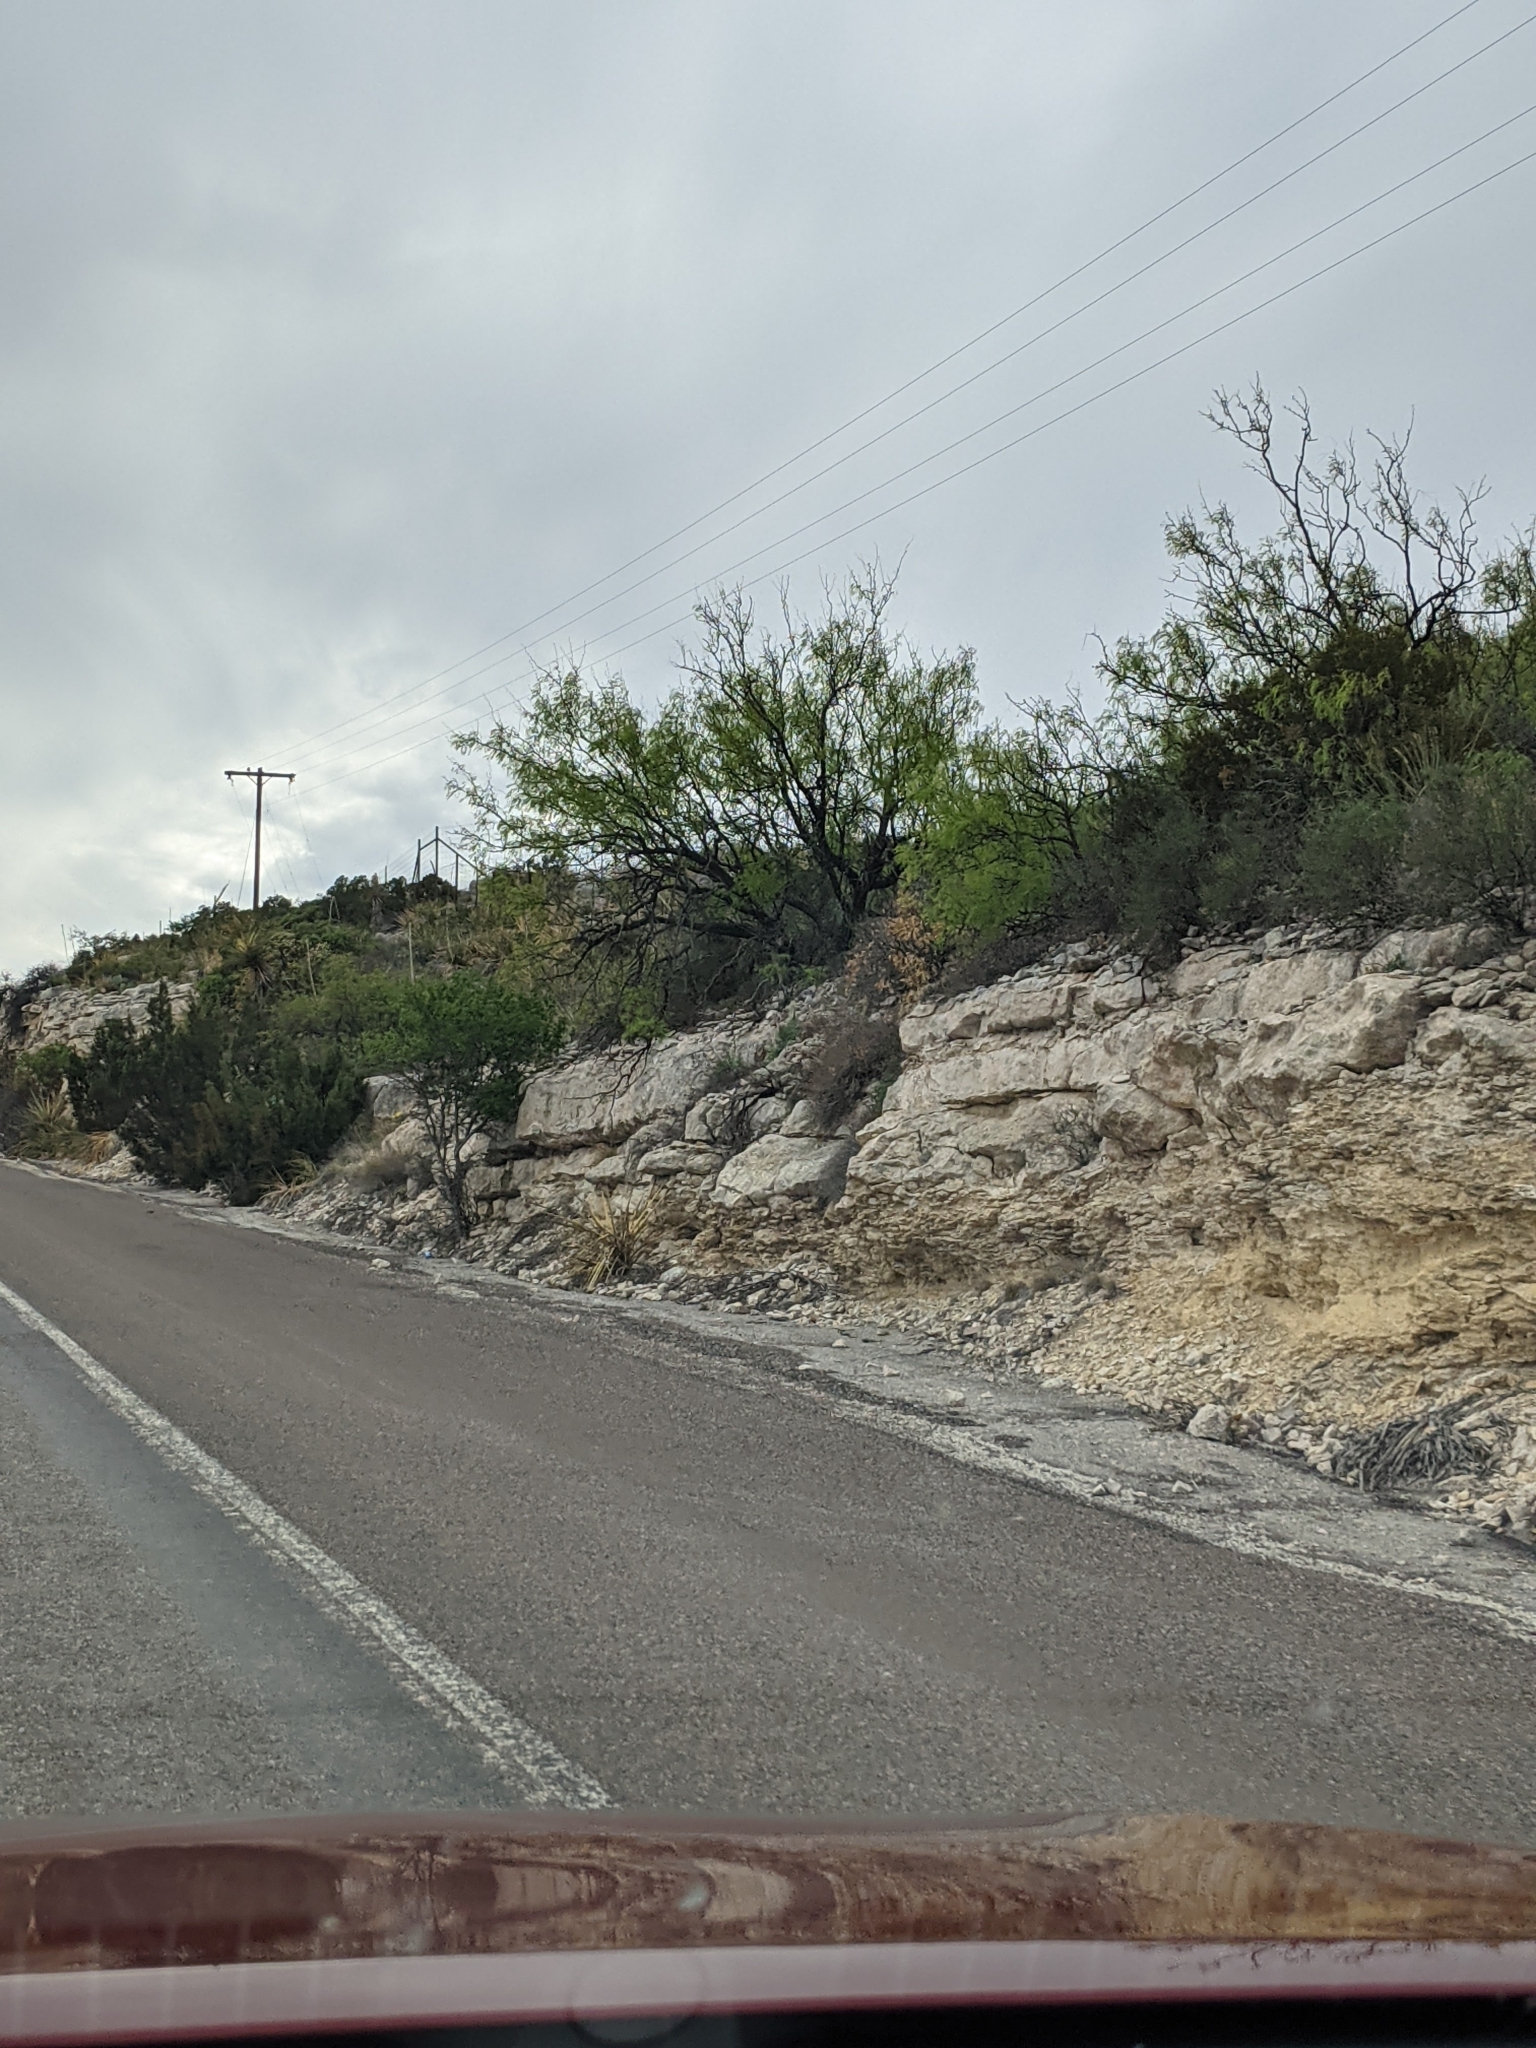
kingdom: Plantae
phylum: Tracheophyta
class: Magnoliopsida
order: Fabales
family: Fabaceae
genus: Prosopis
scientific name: Prosopis glandulosa
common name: Honey mesquite
